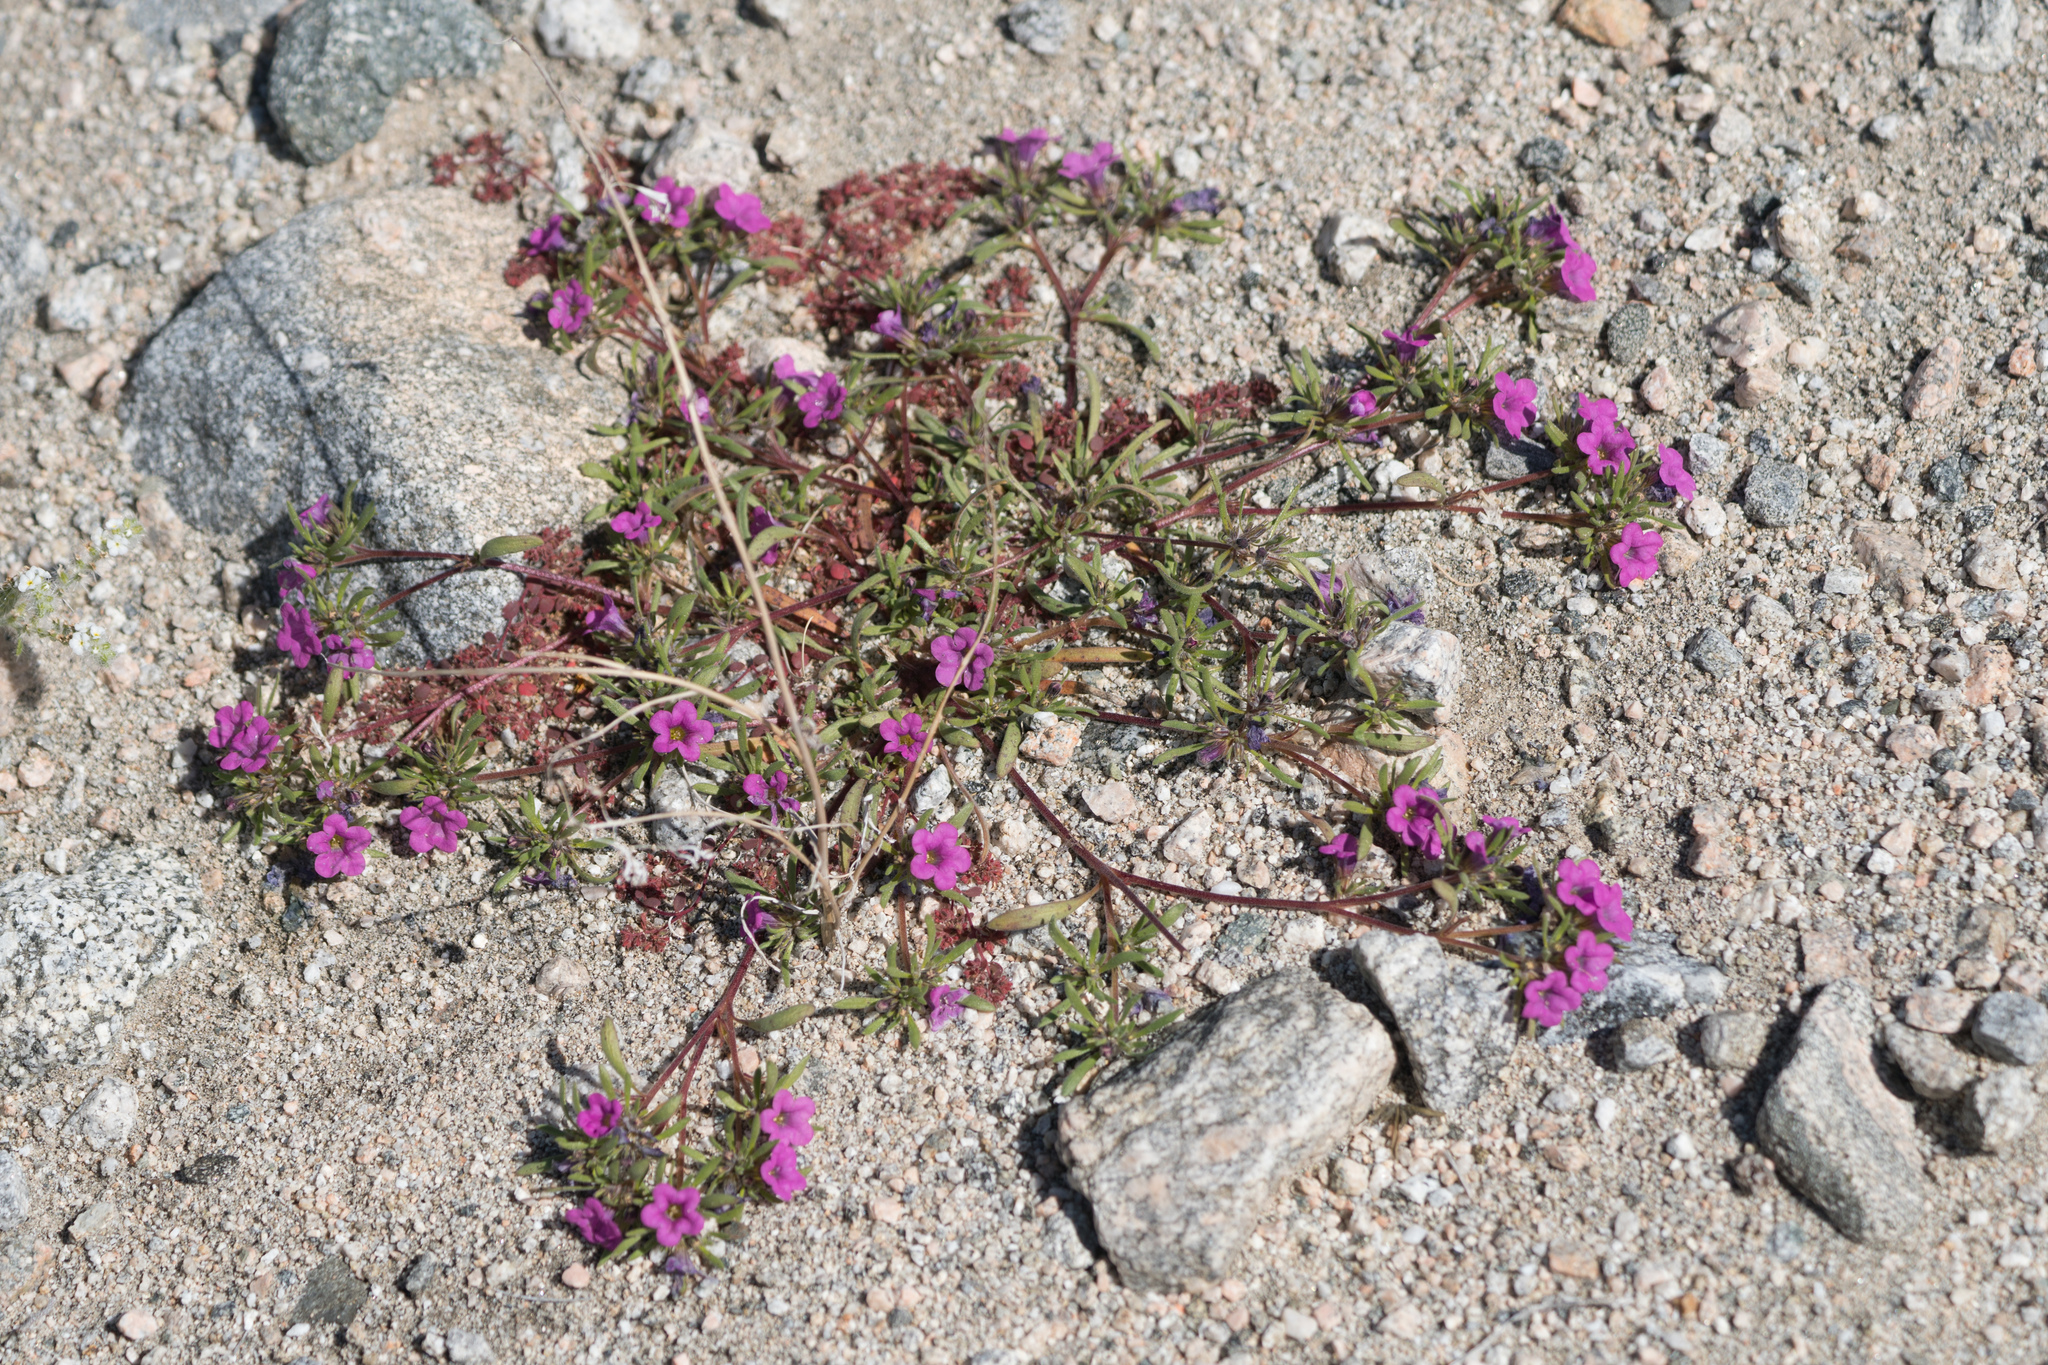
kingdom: Plantae
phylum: Tracheophyta
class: Magnoliopsida
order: Boraginales
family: Namaceae
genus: Nama
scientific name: Nama demissa
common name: Leafy nama
